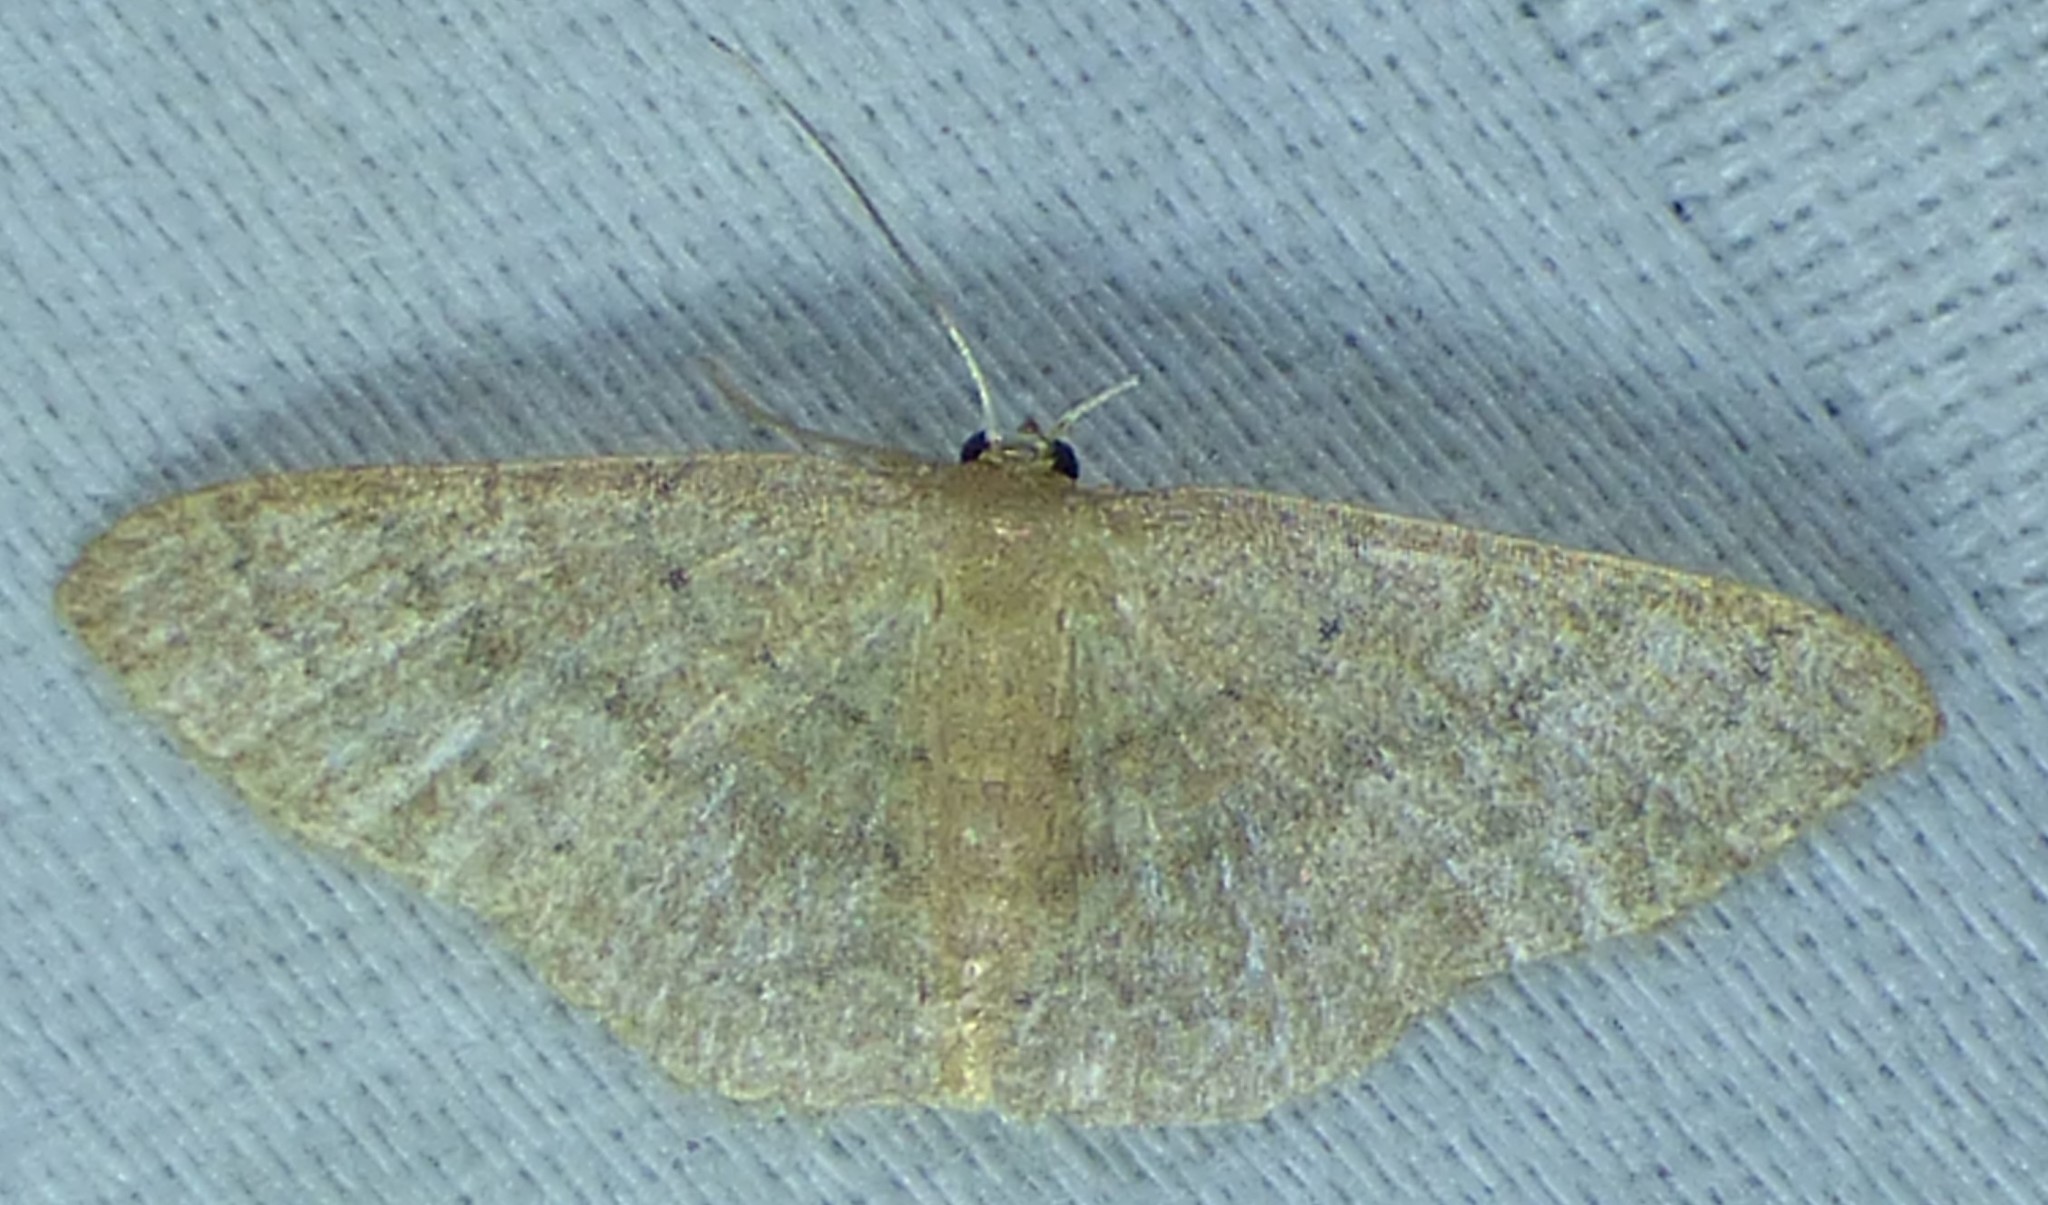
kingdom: Animalia
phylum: Arthropoda
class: Insecta
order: Lepidoptera
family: Geometridae
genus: Pleuroprucha
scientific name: Pleuroprucha insulsaria
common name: Common tan wave
